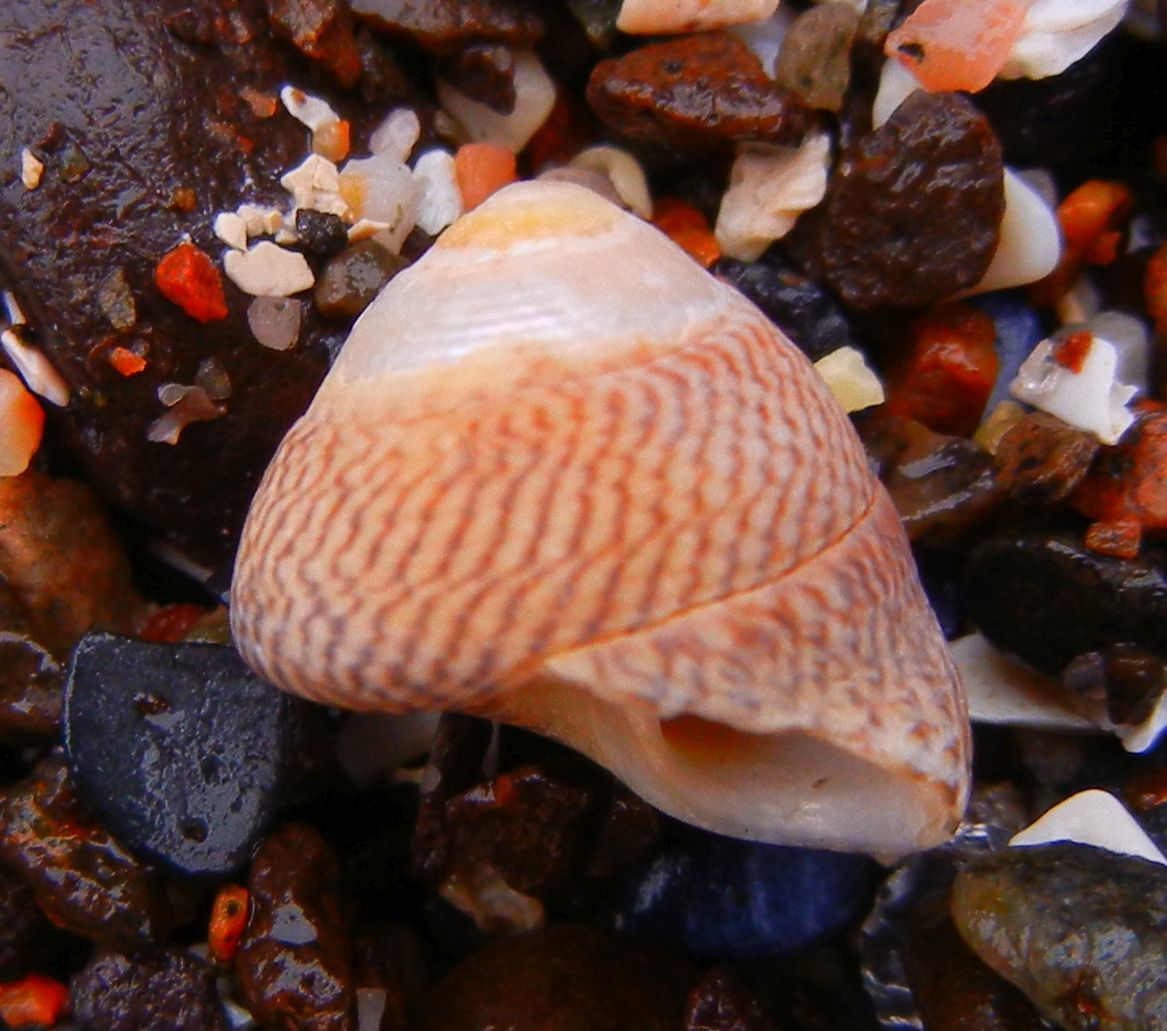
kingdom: Animalia
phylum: Mollusca
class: Gastropoda
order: Trochida
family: Trochidae
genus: Steromphala
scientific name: Steromphala cineraria
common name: Grey top shell
